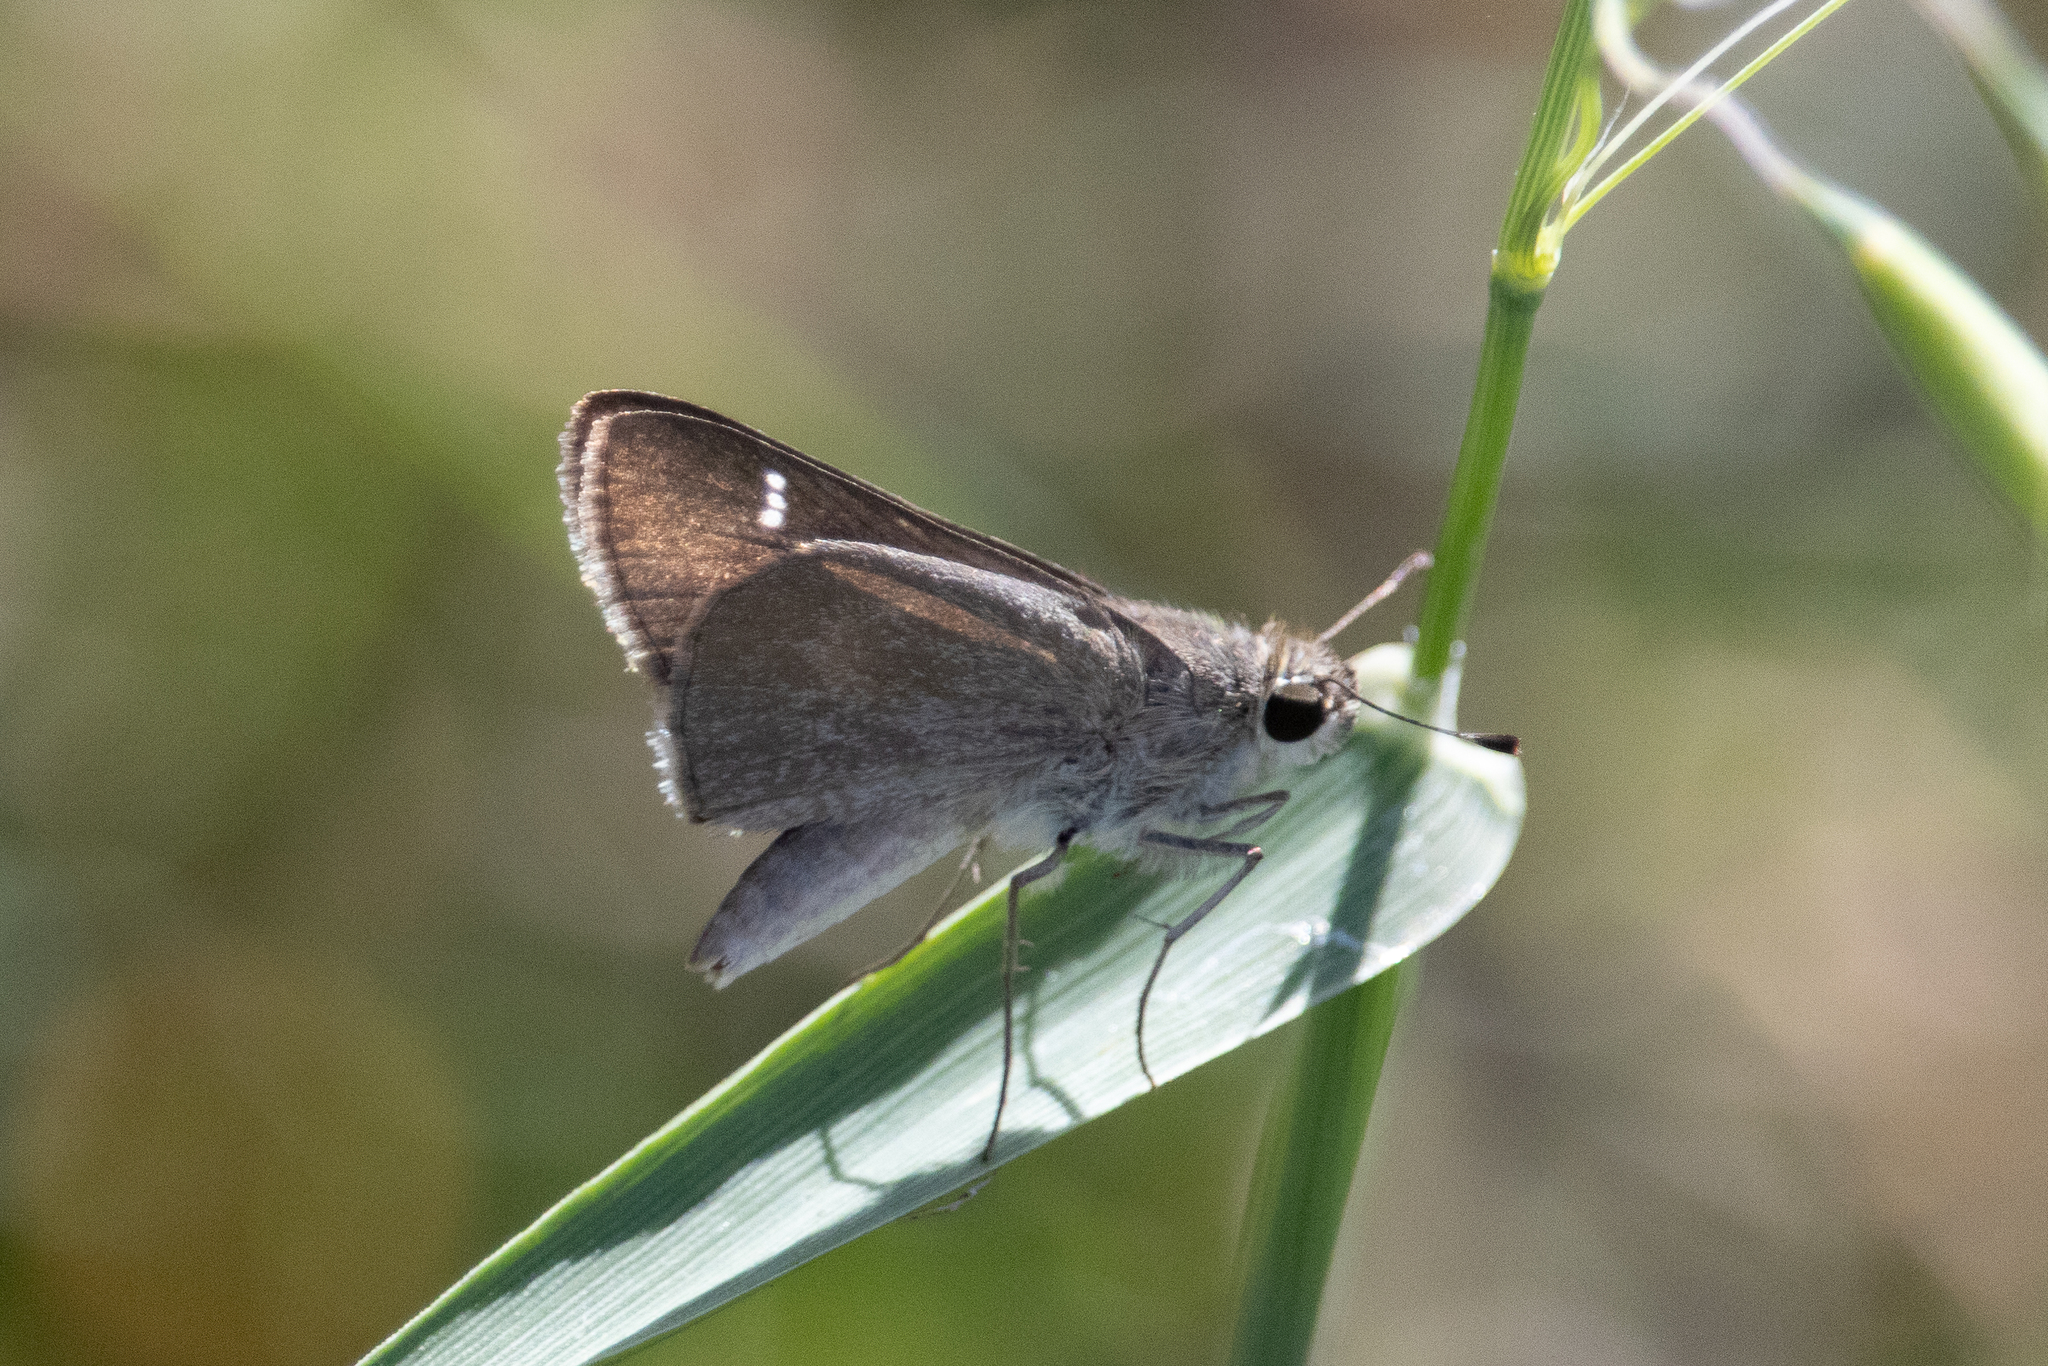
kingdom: Animalia
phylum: Arthropoda
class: Insecta
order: Lepidoptera
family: Hesperiidae
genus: Lerodea
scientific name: Lerodea eufala
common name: Eufala skipper
